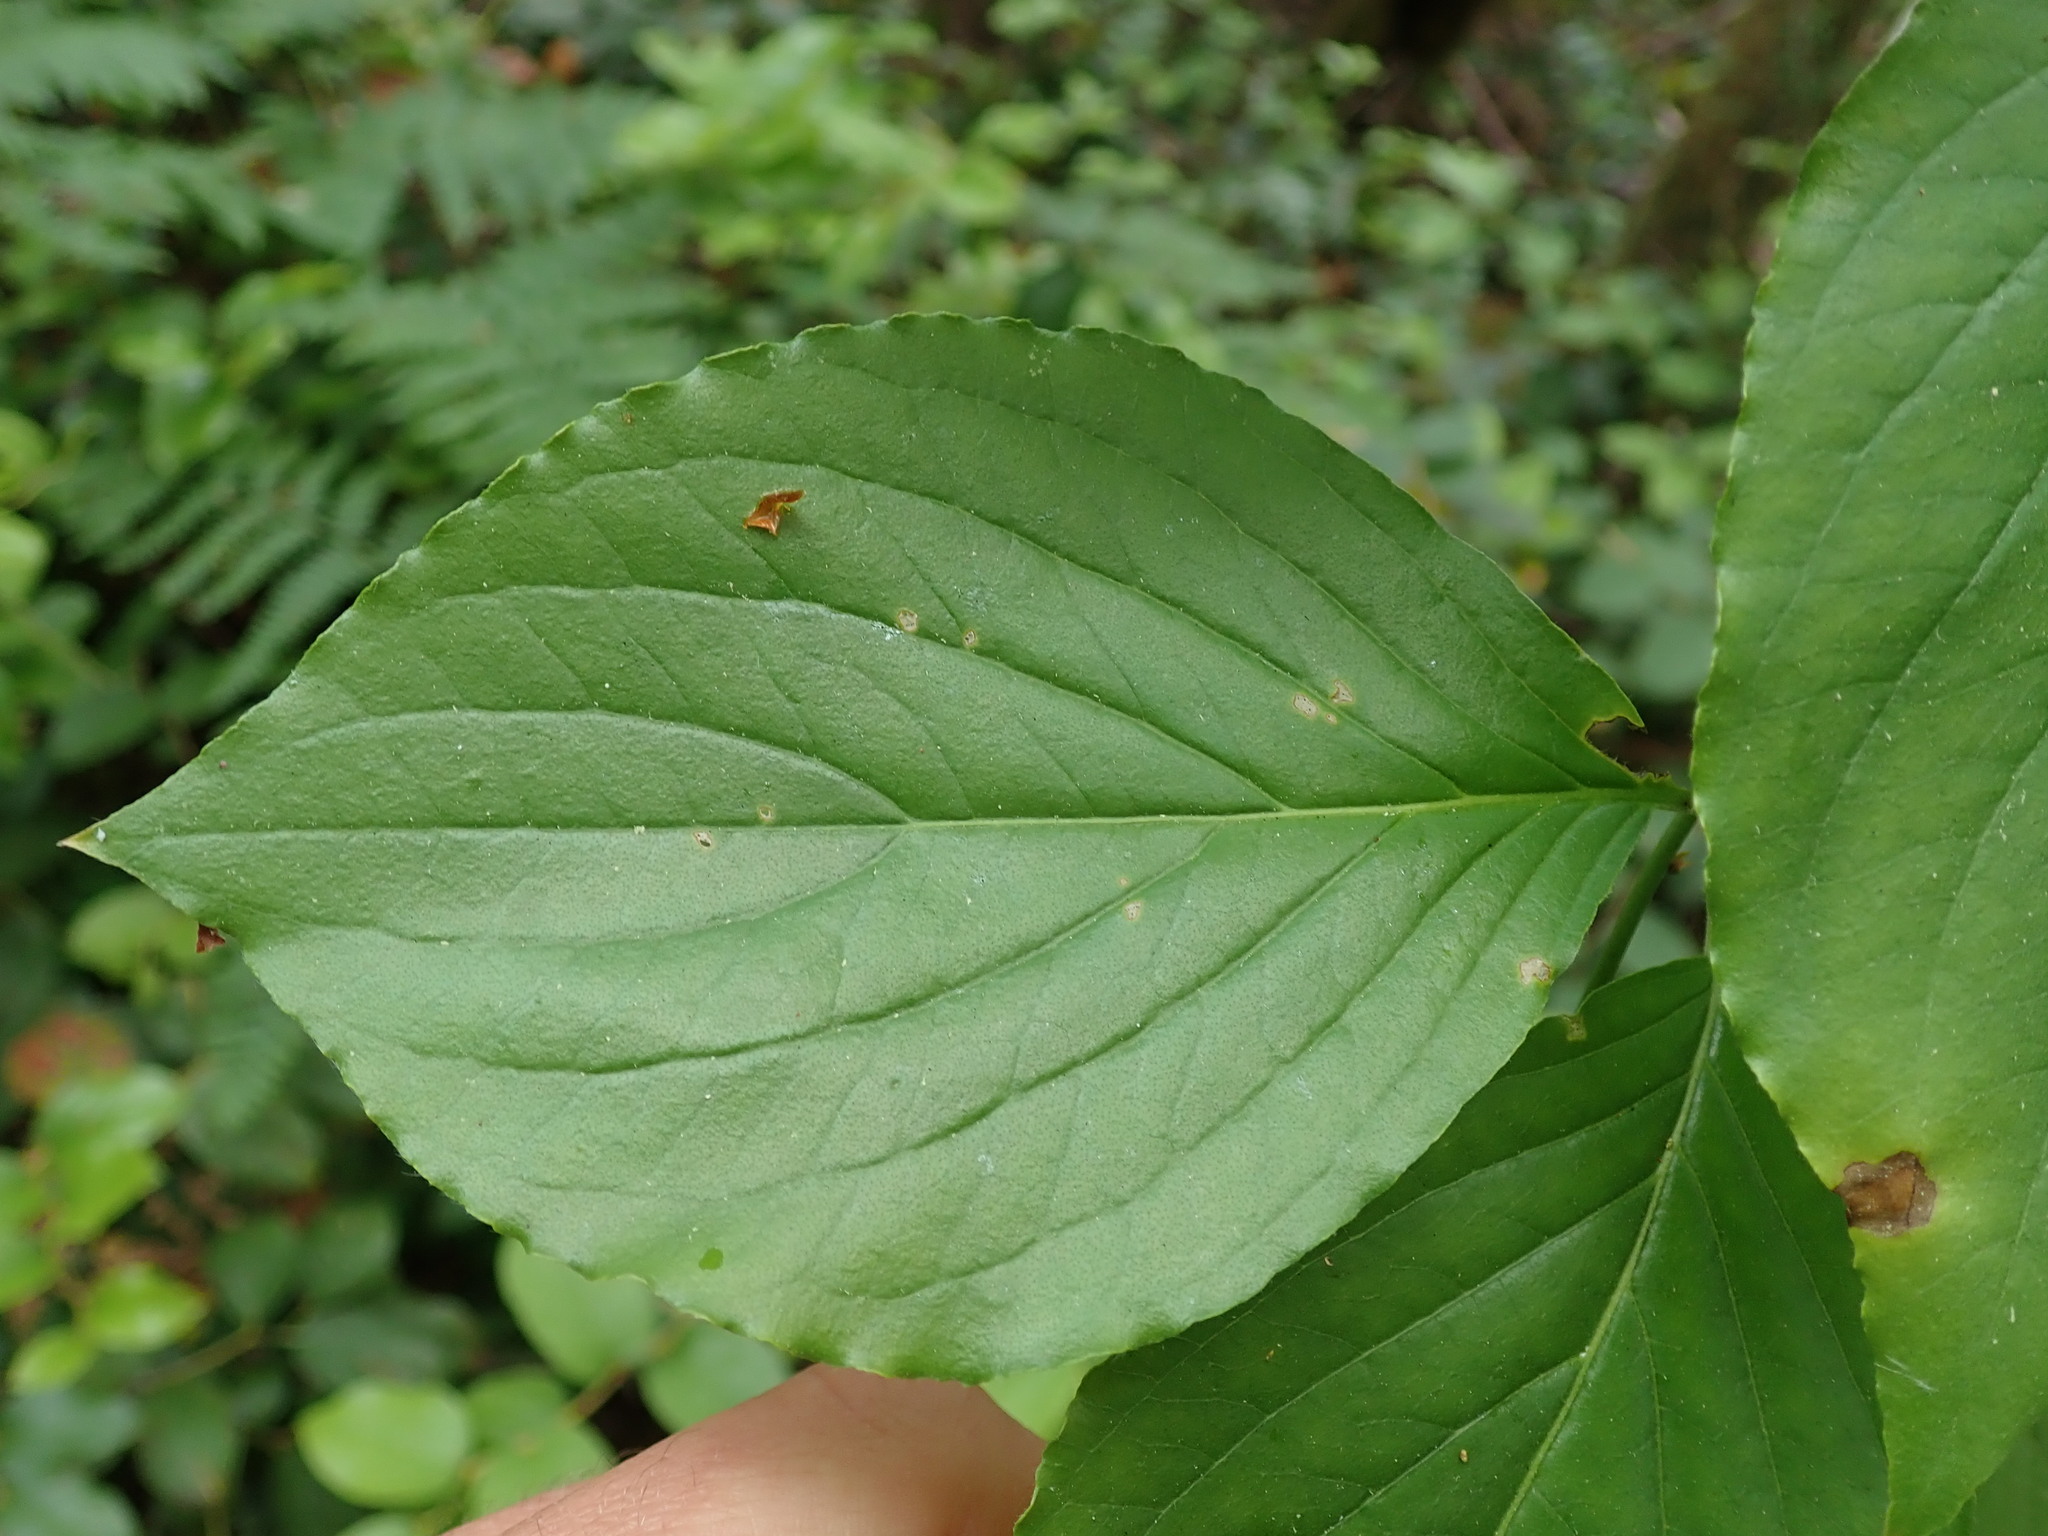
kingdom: Plantae
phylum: Tracheophyta
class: Magnoliopsida
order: Cornales
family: Cornaceae
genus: Cornus
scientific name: Cornus nuttallii
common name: Pacific dogwood
